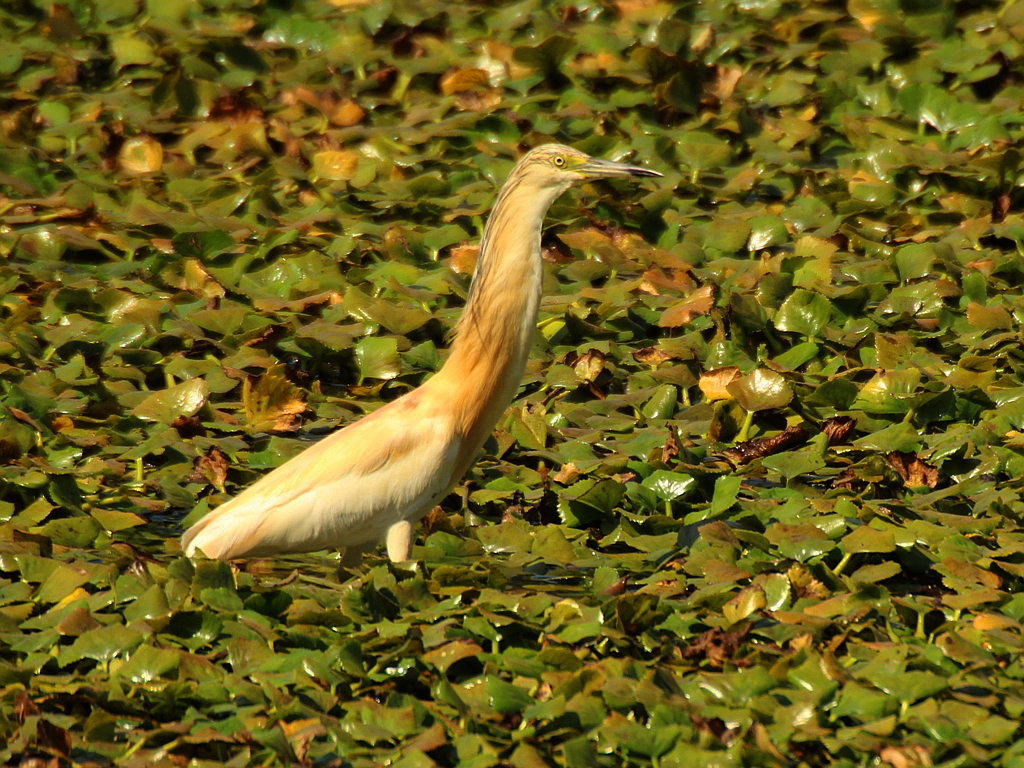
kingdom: Animalia
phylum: Chordata
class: Aves
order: Pelecaniformes
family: Ardeidae
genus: Ardeola
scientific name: Ardeola ralloides
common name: Squacco heron
